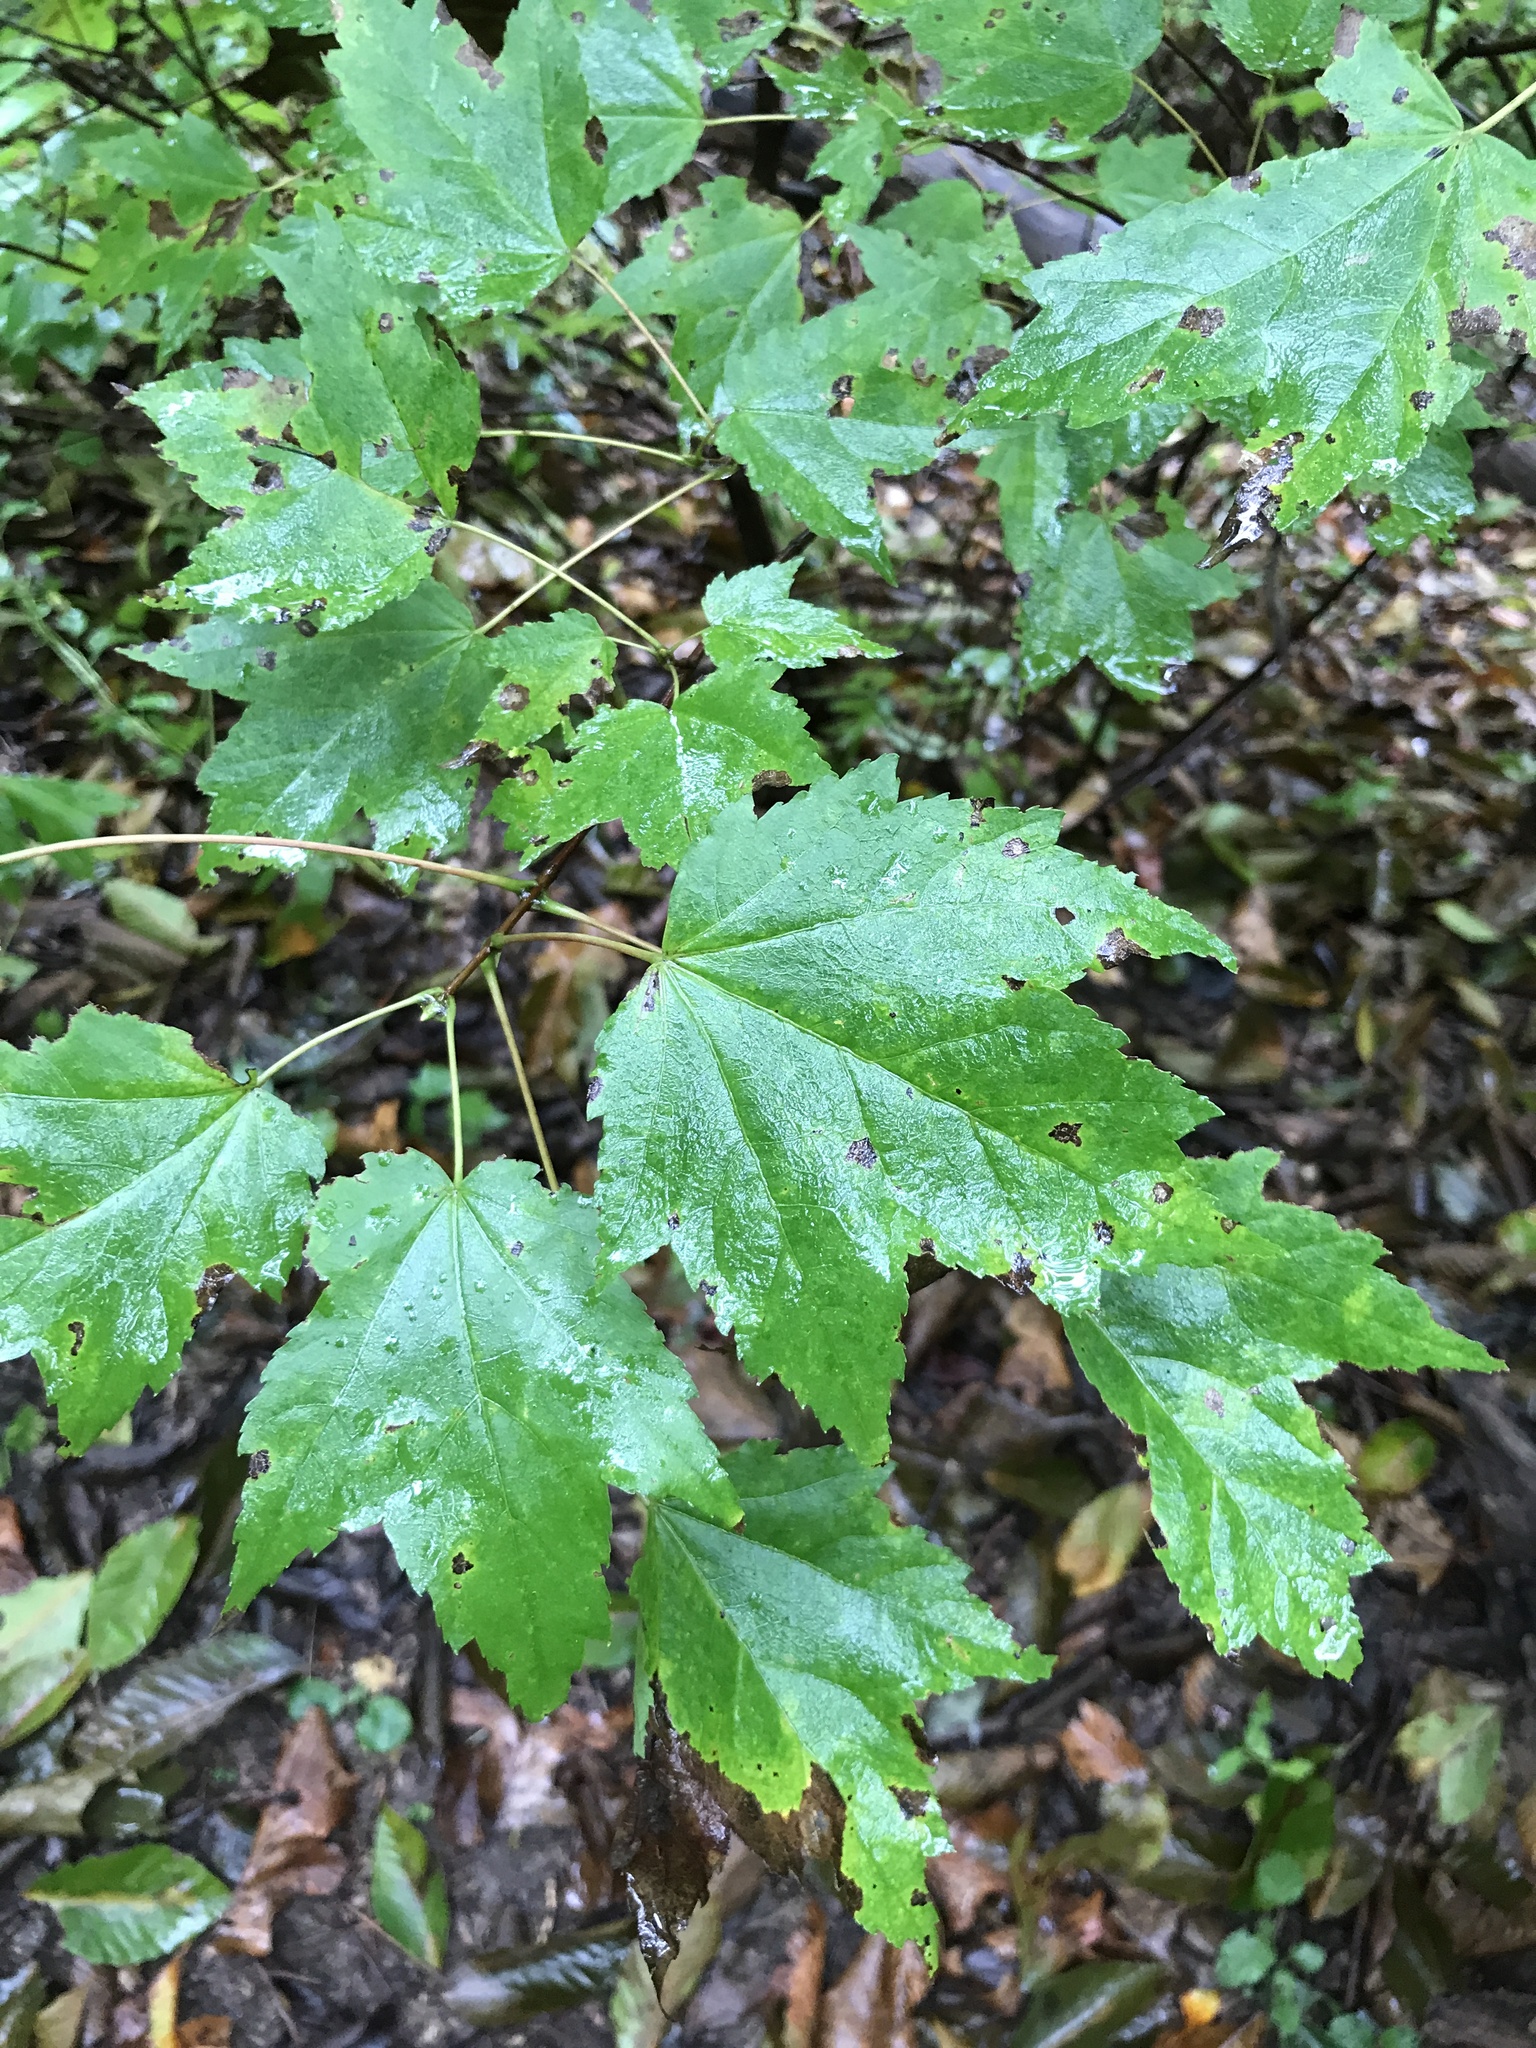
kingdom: Plantae
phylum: Tracheophyta
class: Magnoliopsida
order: Sapindales
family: Sapindaceae
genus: Acer
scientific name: Acer rubrum
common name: Red maple
